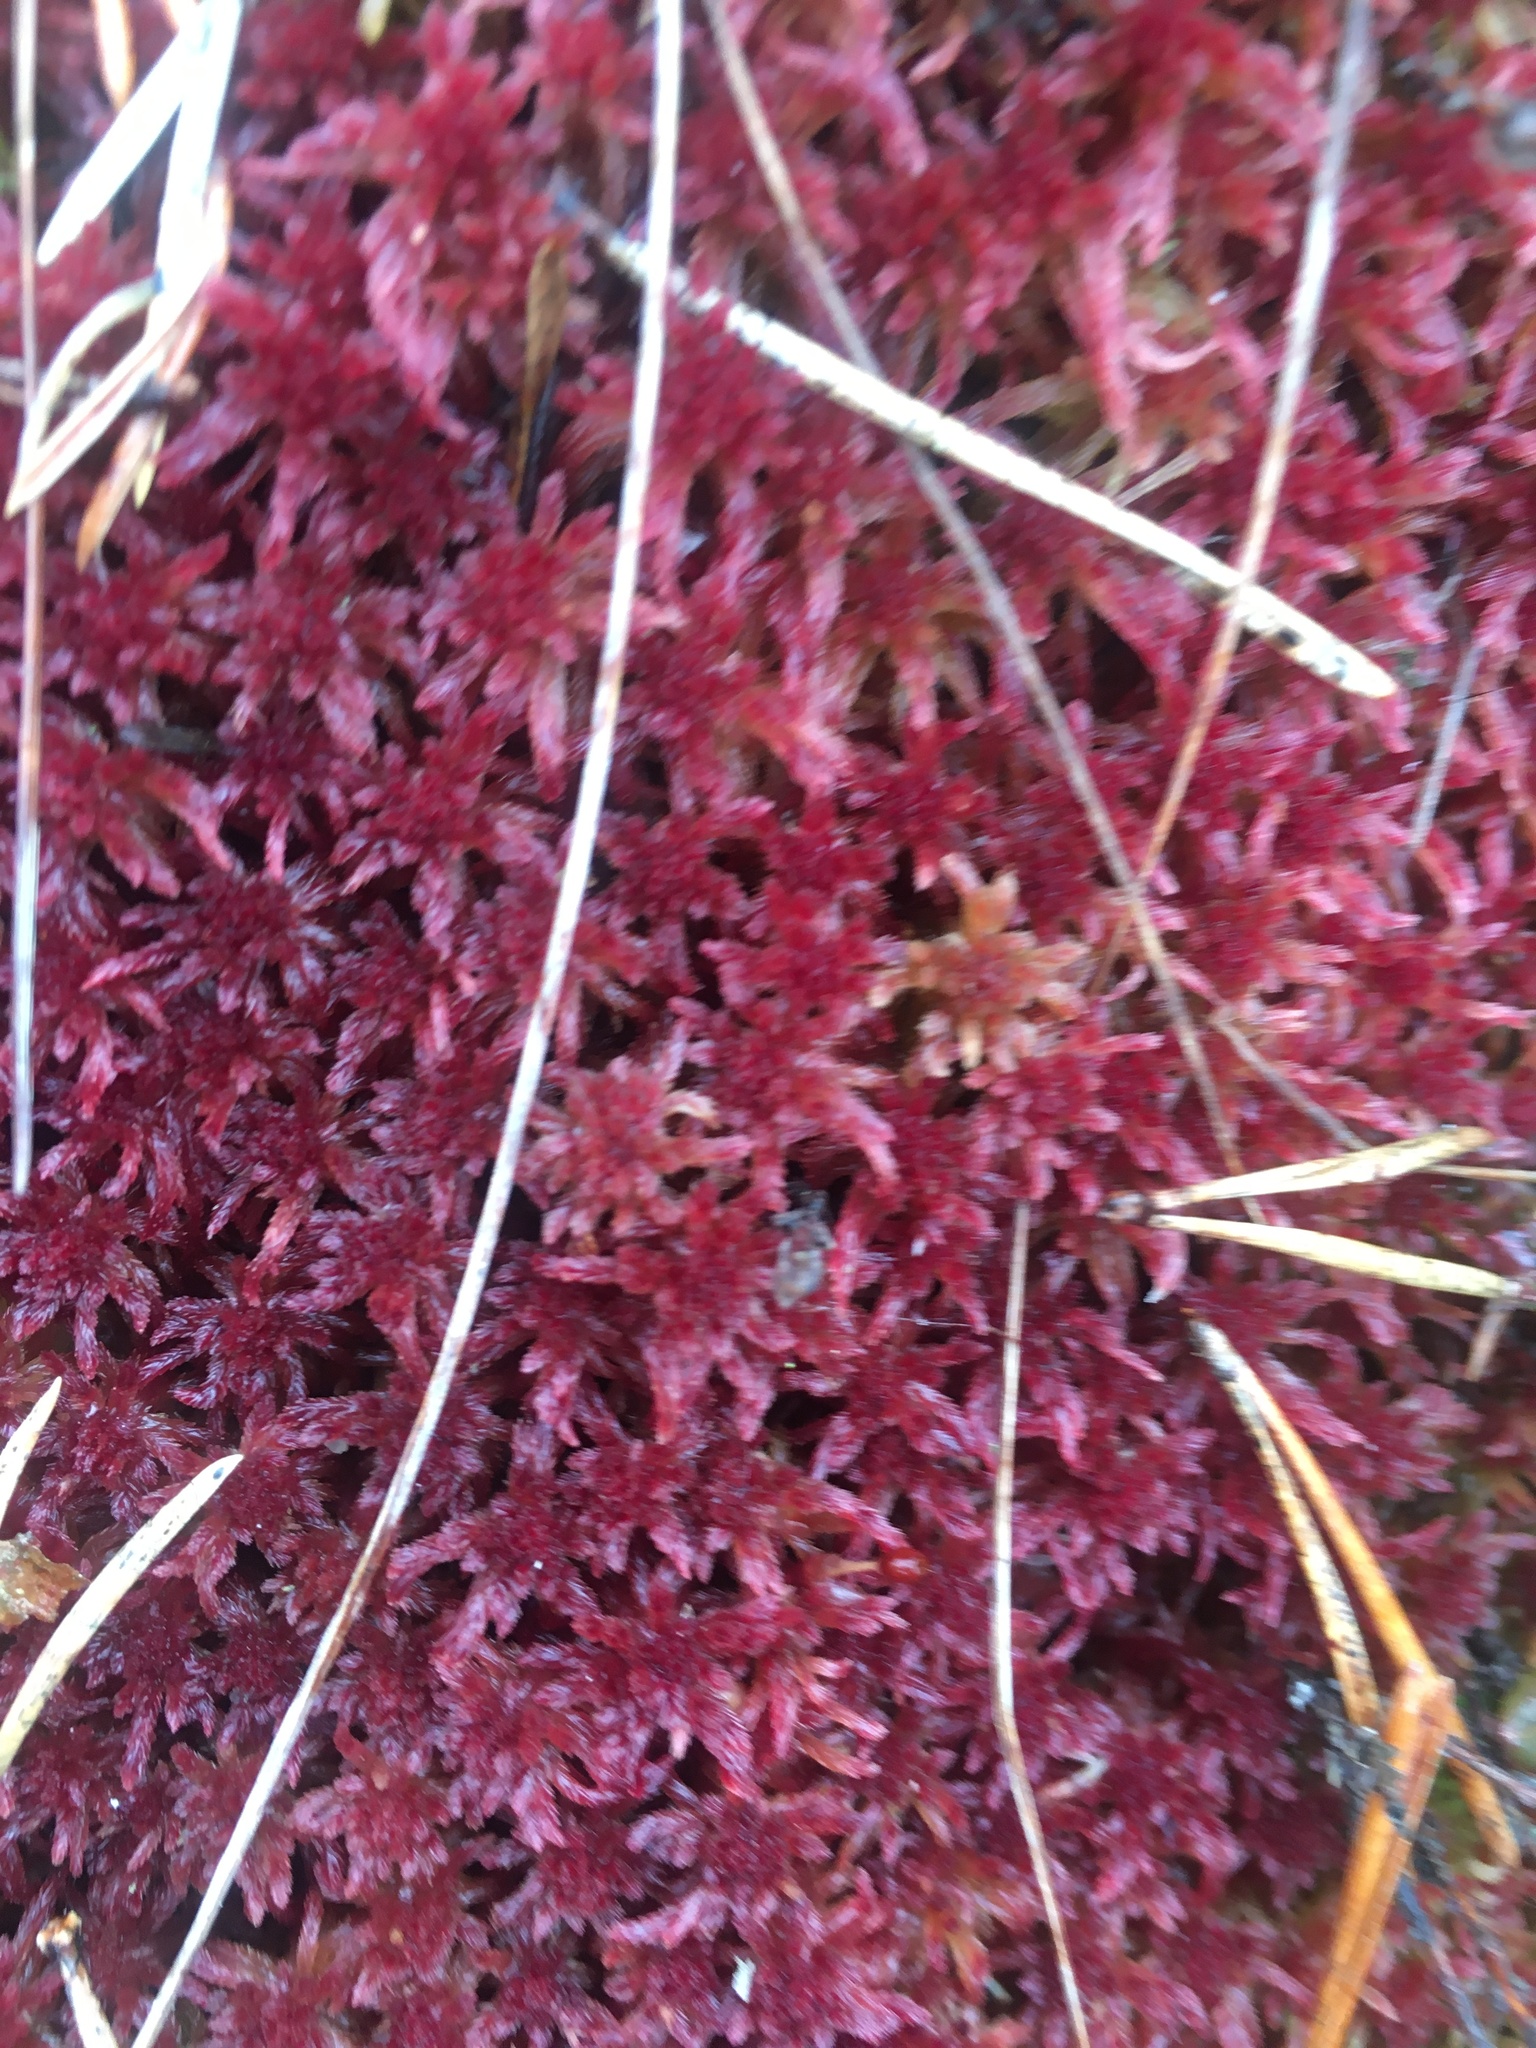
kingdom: Plantae
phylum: Bryophyta
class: Sphagnopsida
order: Sphagnales
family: Sphagnaceae
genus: Sphagnum
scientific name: Sphagnum rubellum
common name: Red peat moss
